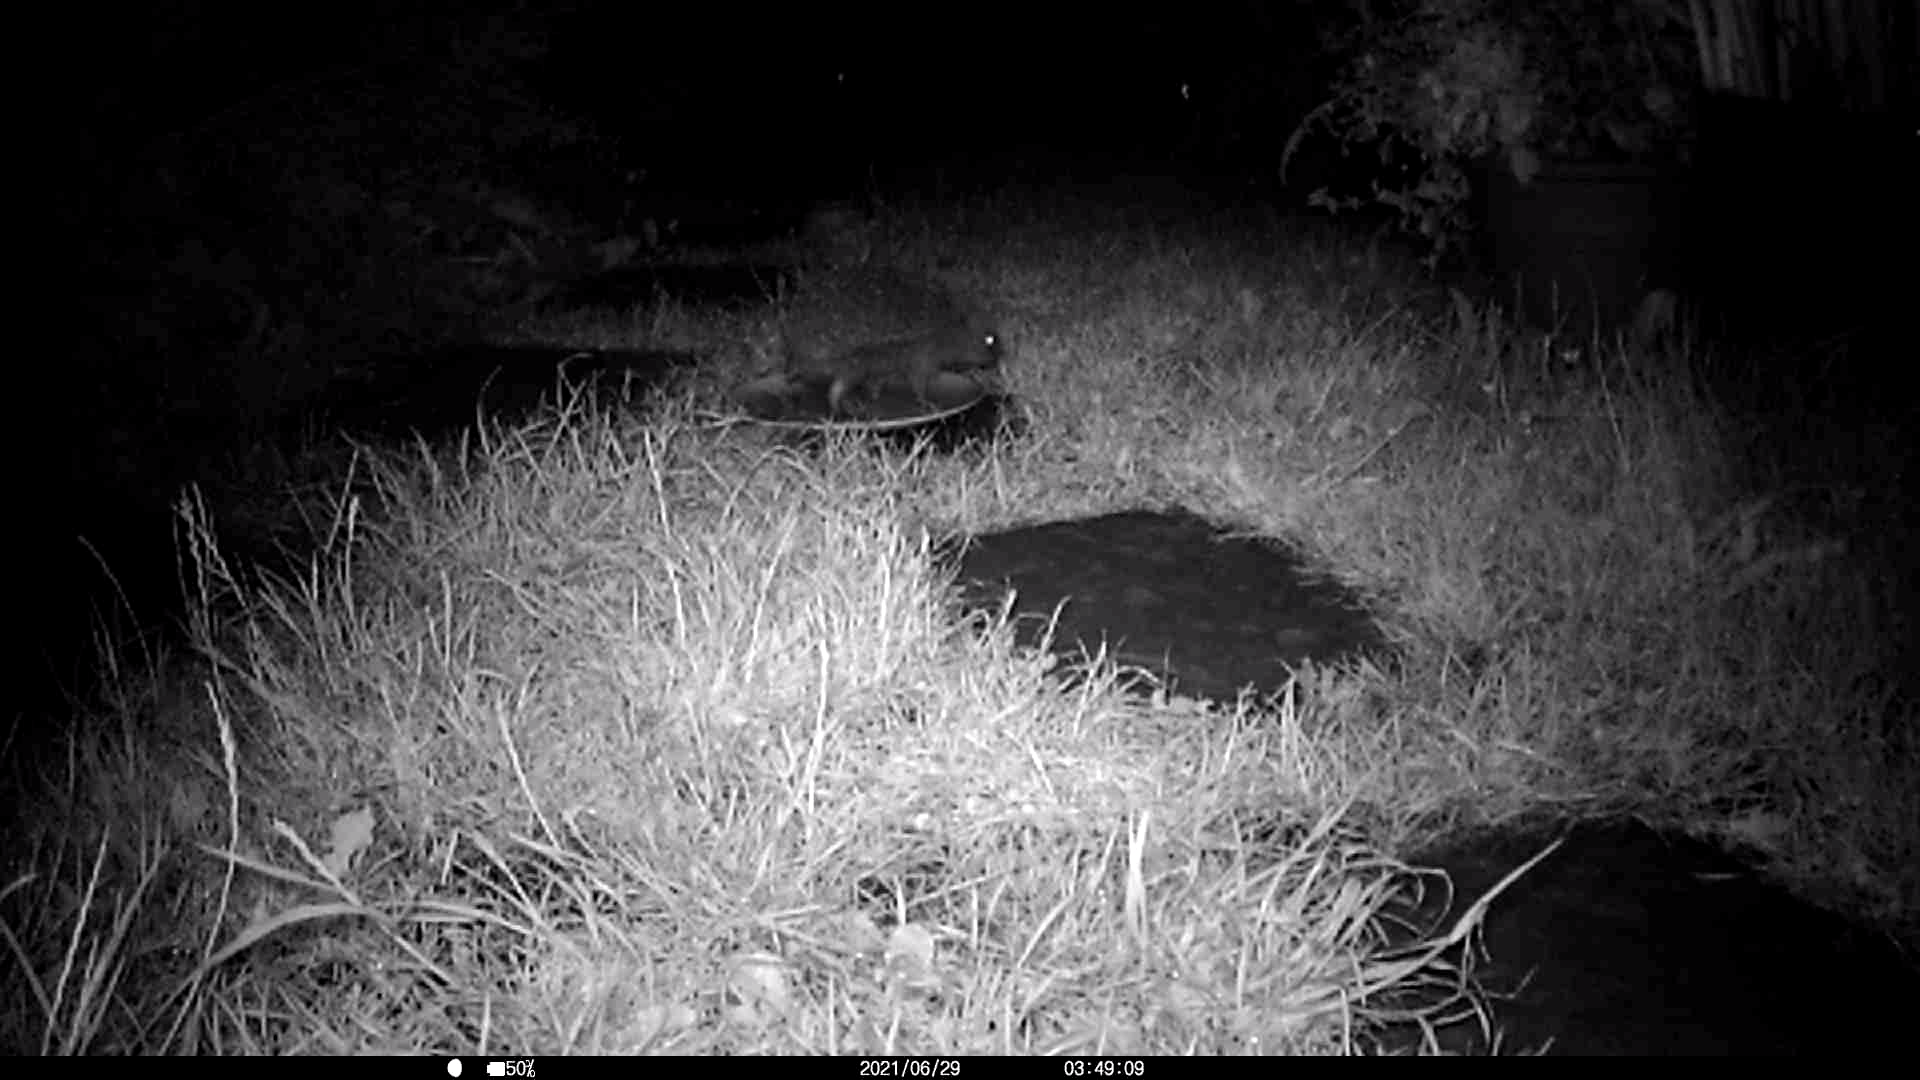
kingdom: Animalia
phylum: Chordata
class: Mammalia
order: Erinaceomorpha
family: Erinaceidae
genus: Erinaceus
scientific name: Erinaceus europaeus
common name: West european hedgehog
